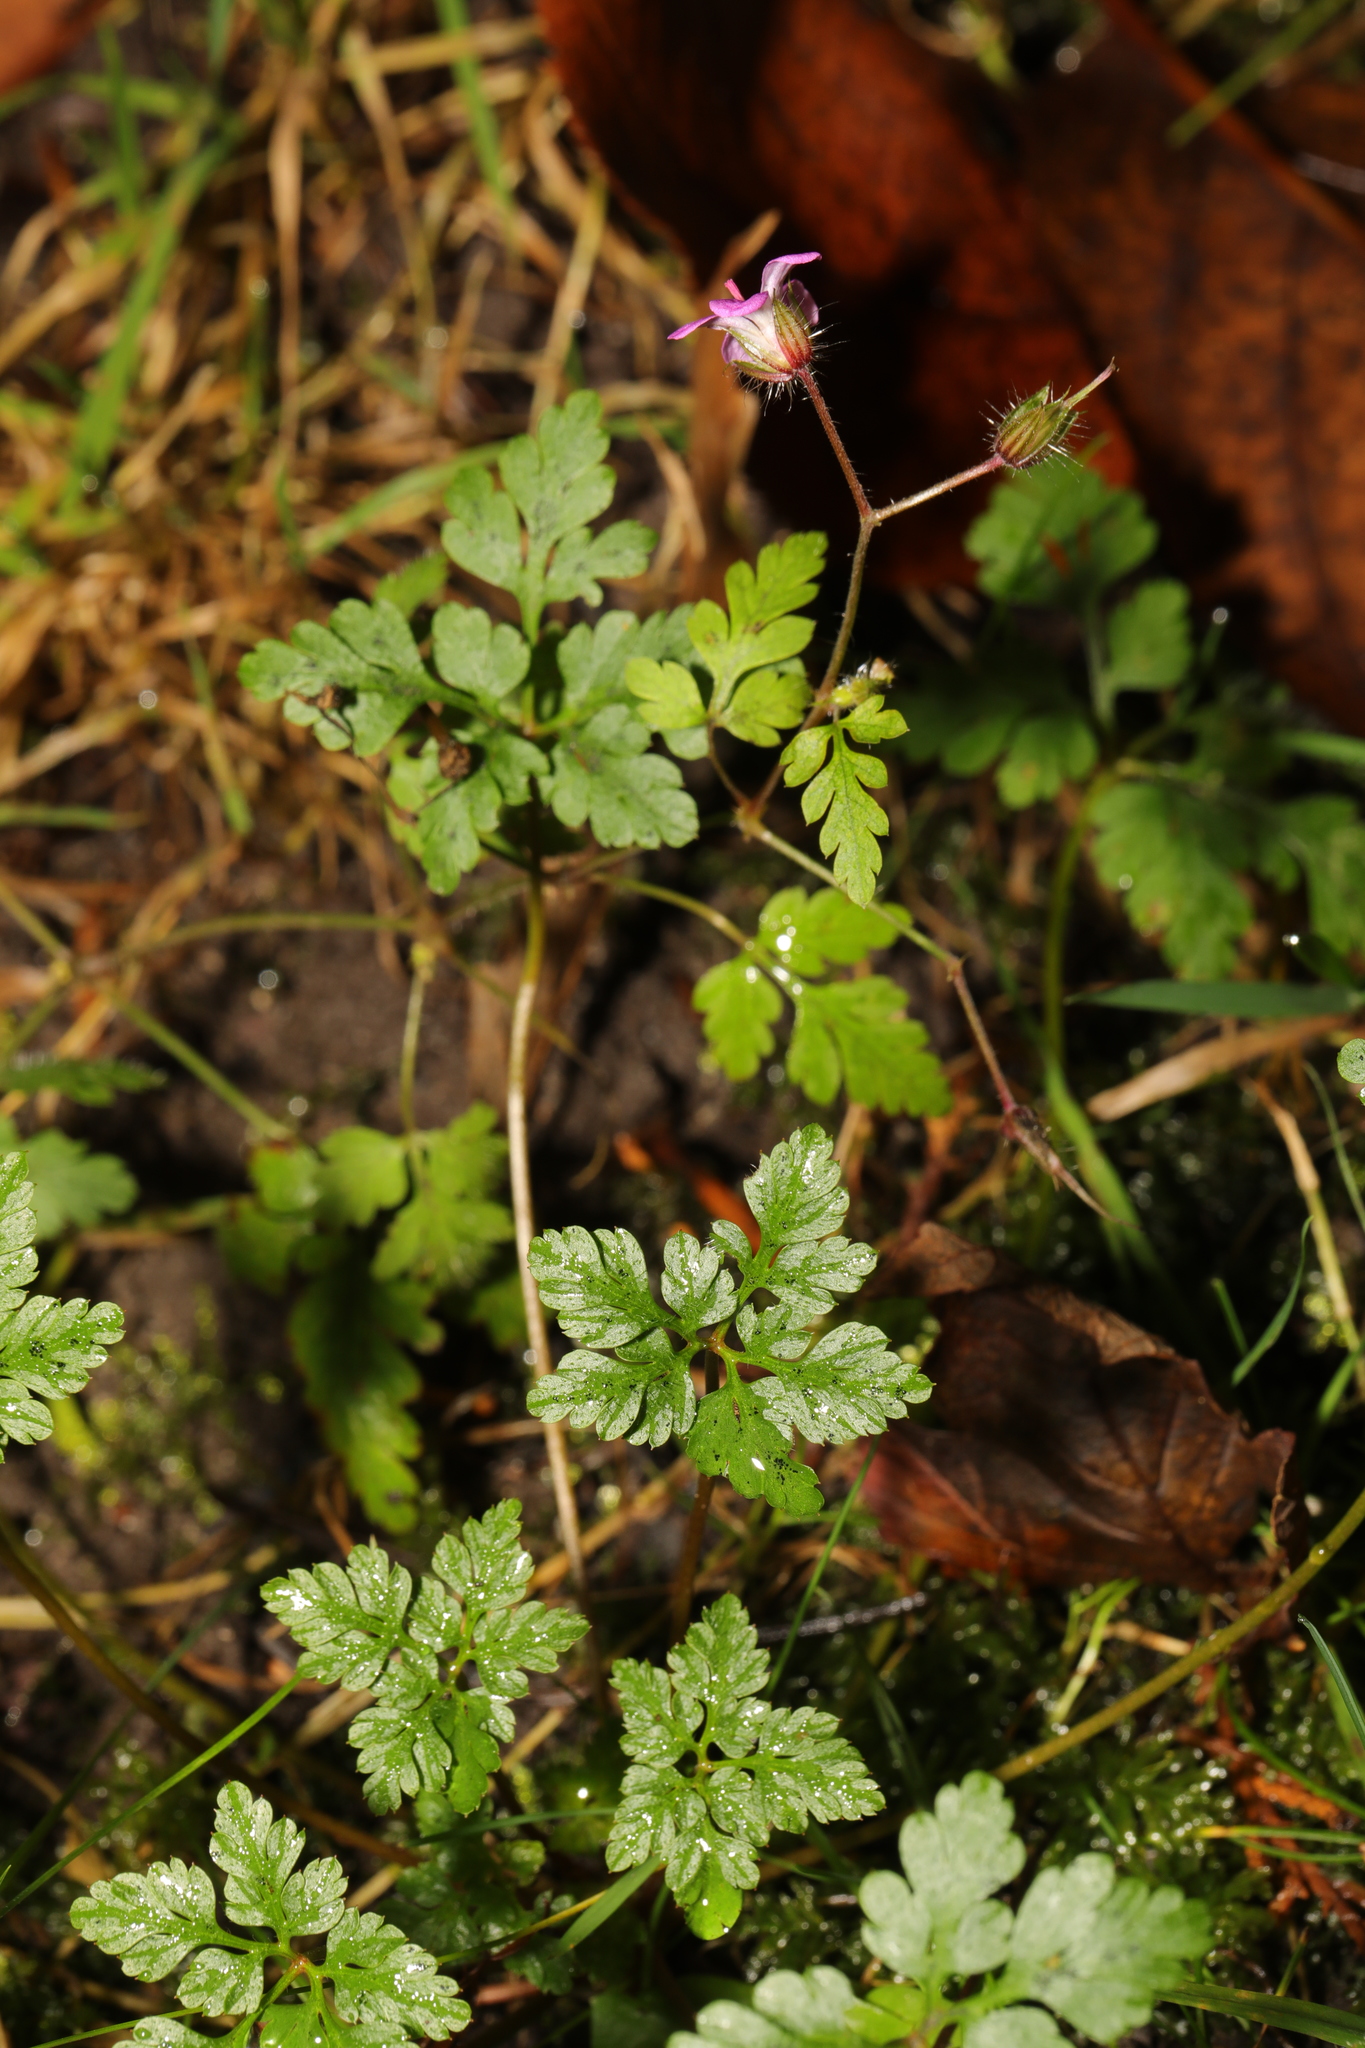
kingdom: Plantae
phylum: Tracheophyta
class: Magnoliopsida
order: Geraniales
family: Geraniaceae
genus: Geranium
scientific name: Geranium robertianum
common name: Herb-robert
